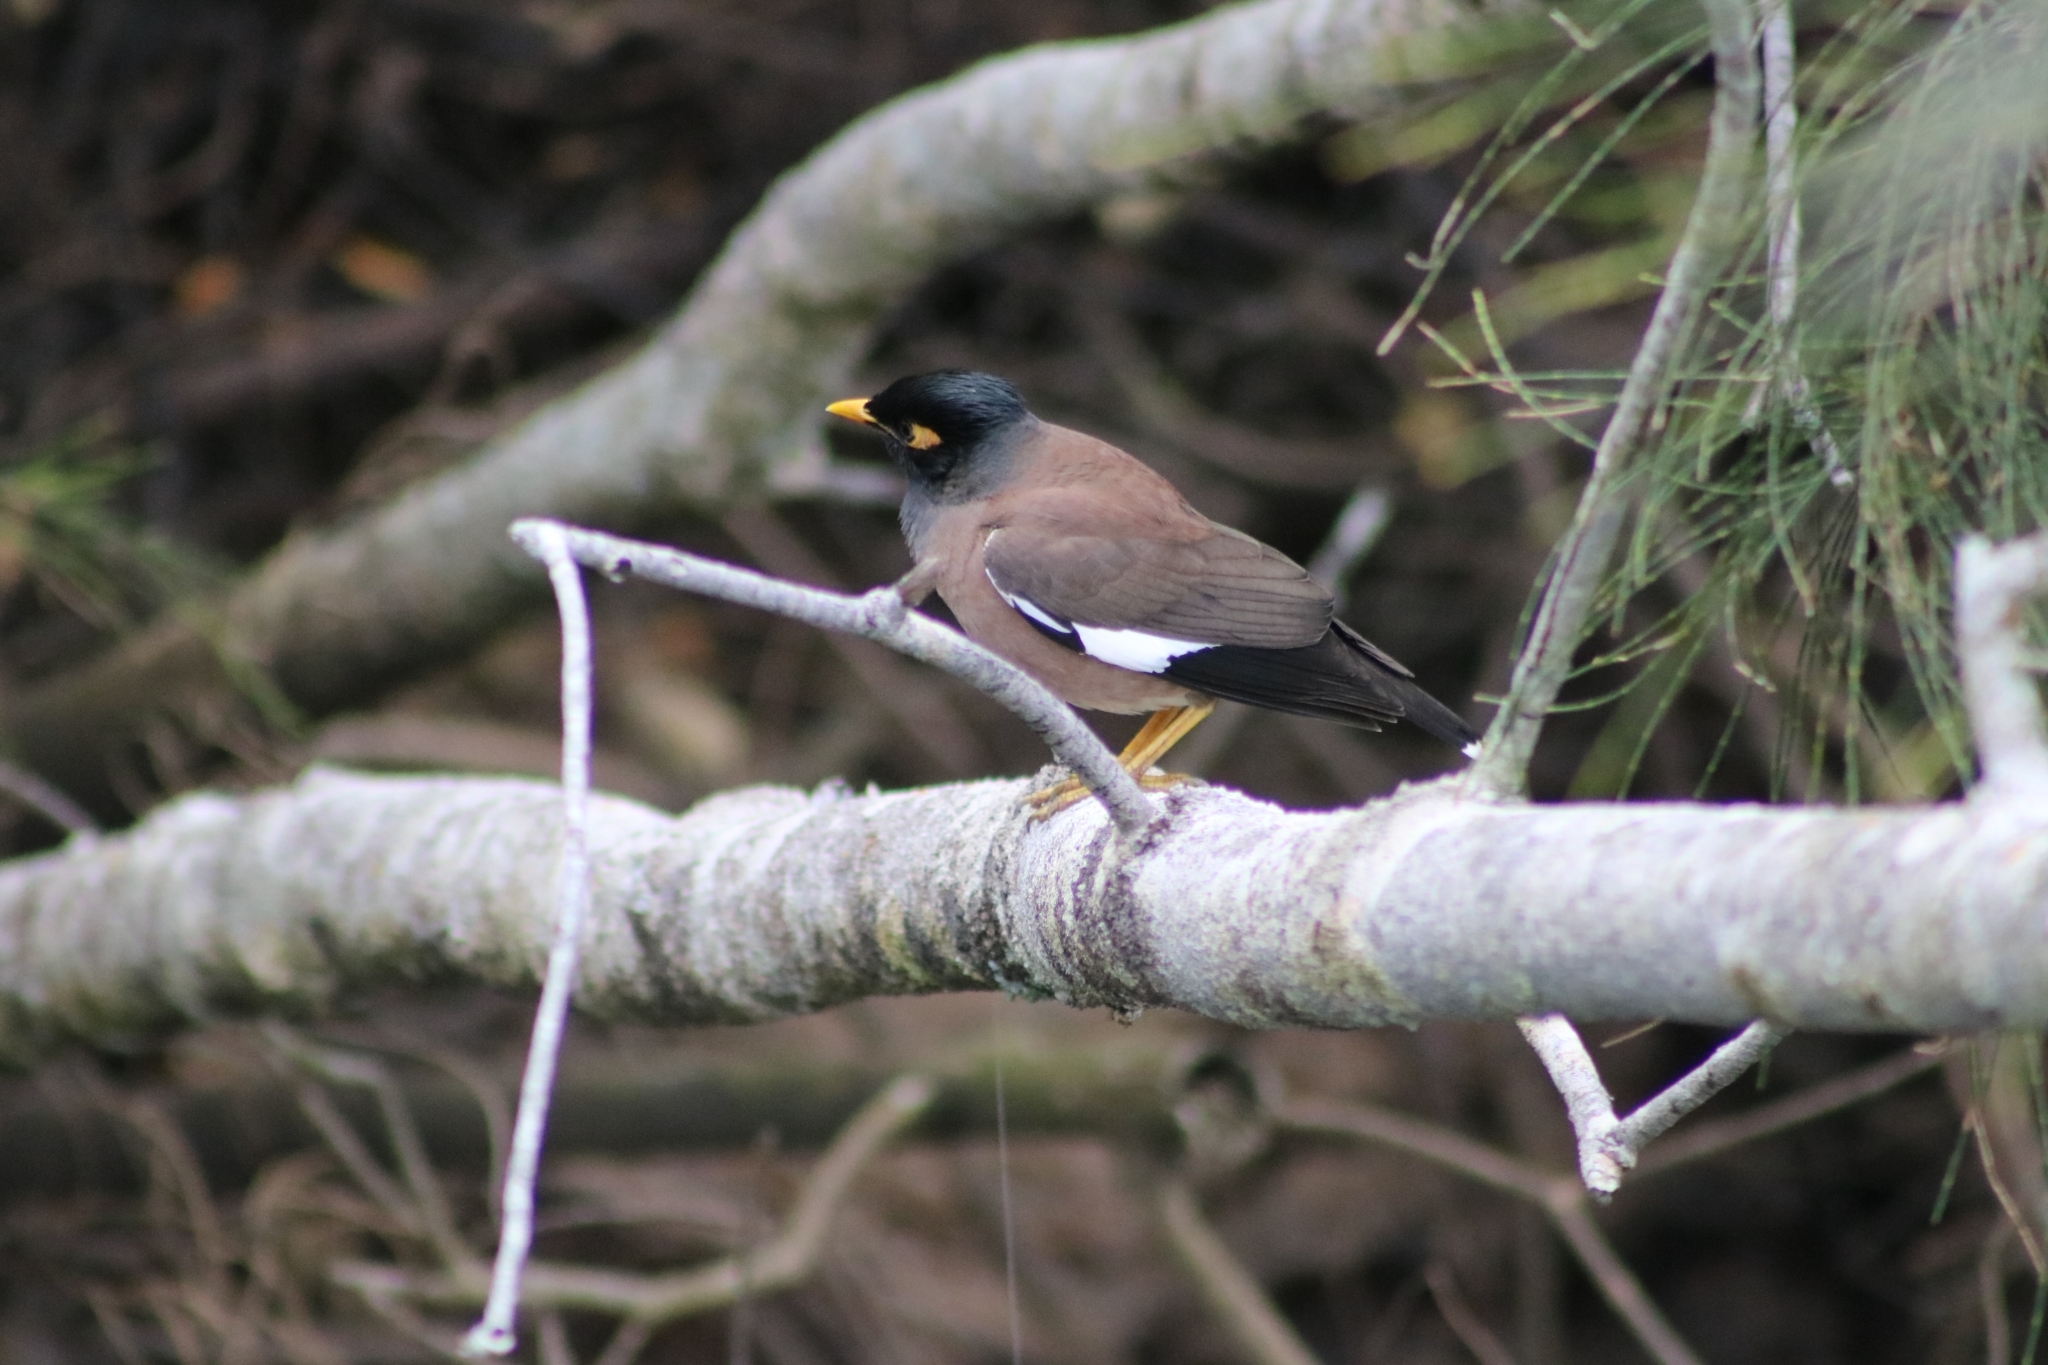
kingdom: Animalia
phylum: Chordata
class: Aves
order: Passeriformes
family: Sturnidae
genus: Acridotheres
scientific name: Acridotheres tristis
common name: Common myna
